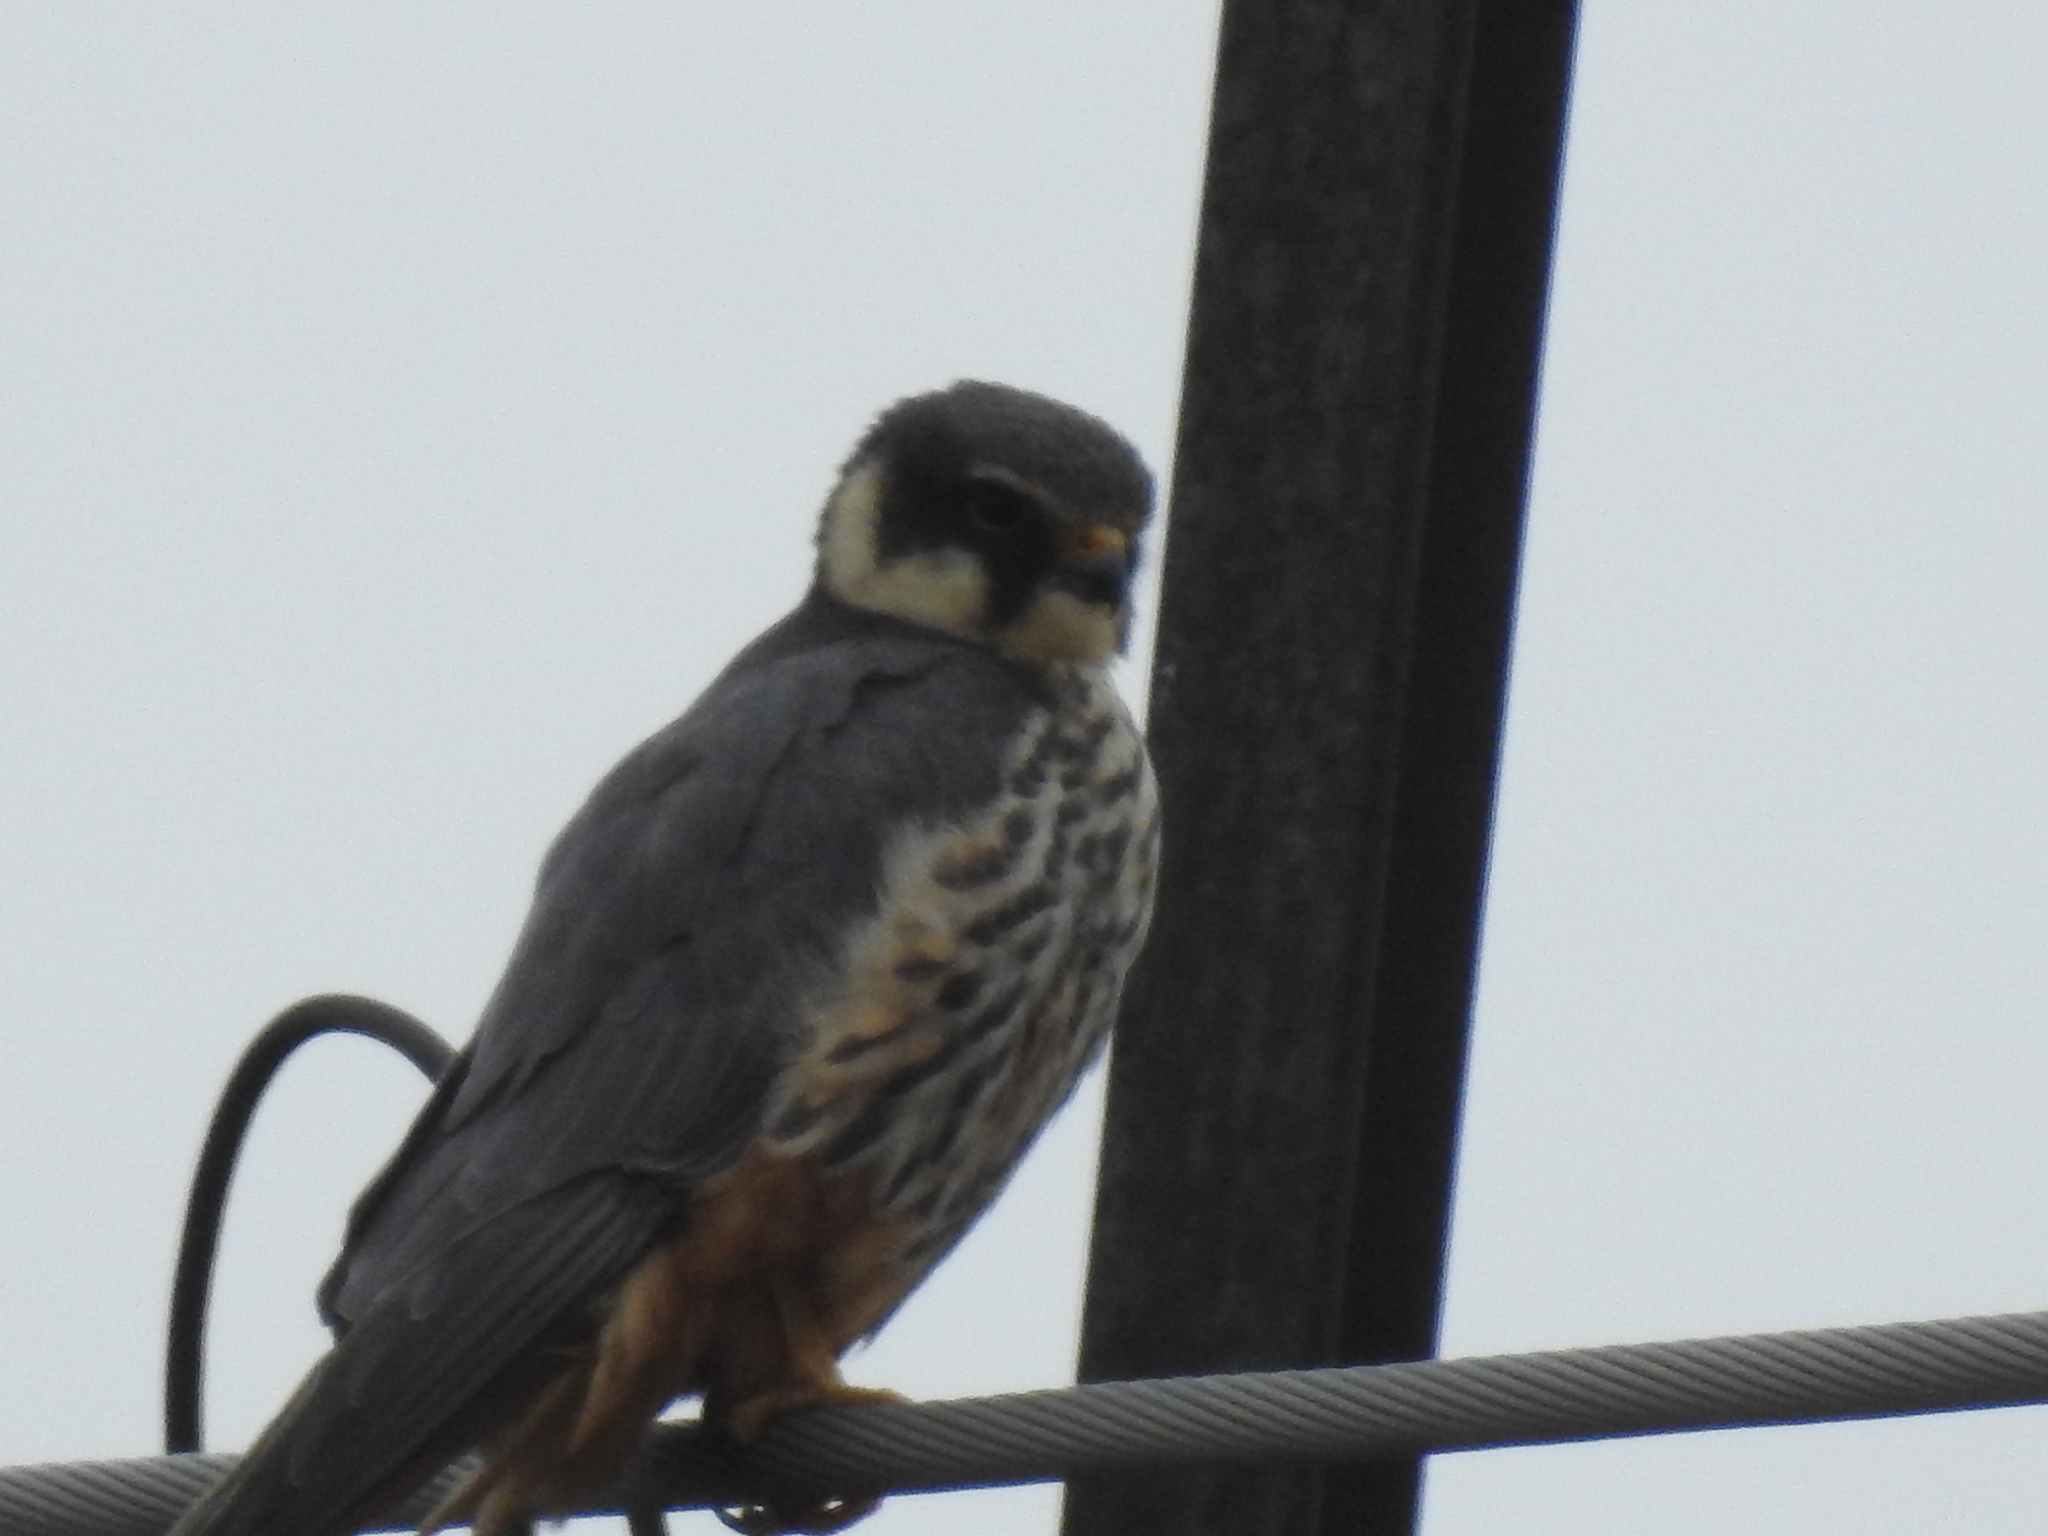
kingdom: Animalia
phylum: Chordata
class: Aves
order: Falconiformes
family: Falconidae
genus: Falco
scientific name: Falco subbuteo
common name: Eurasian hobby
